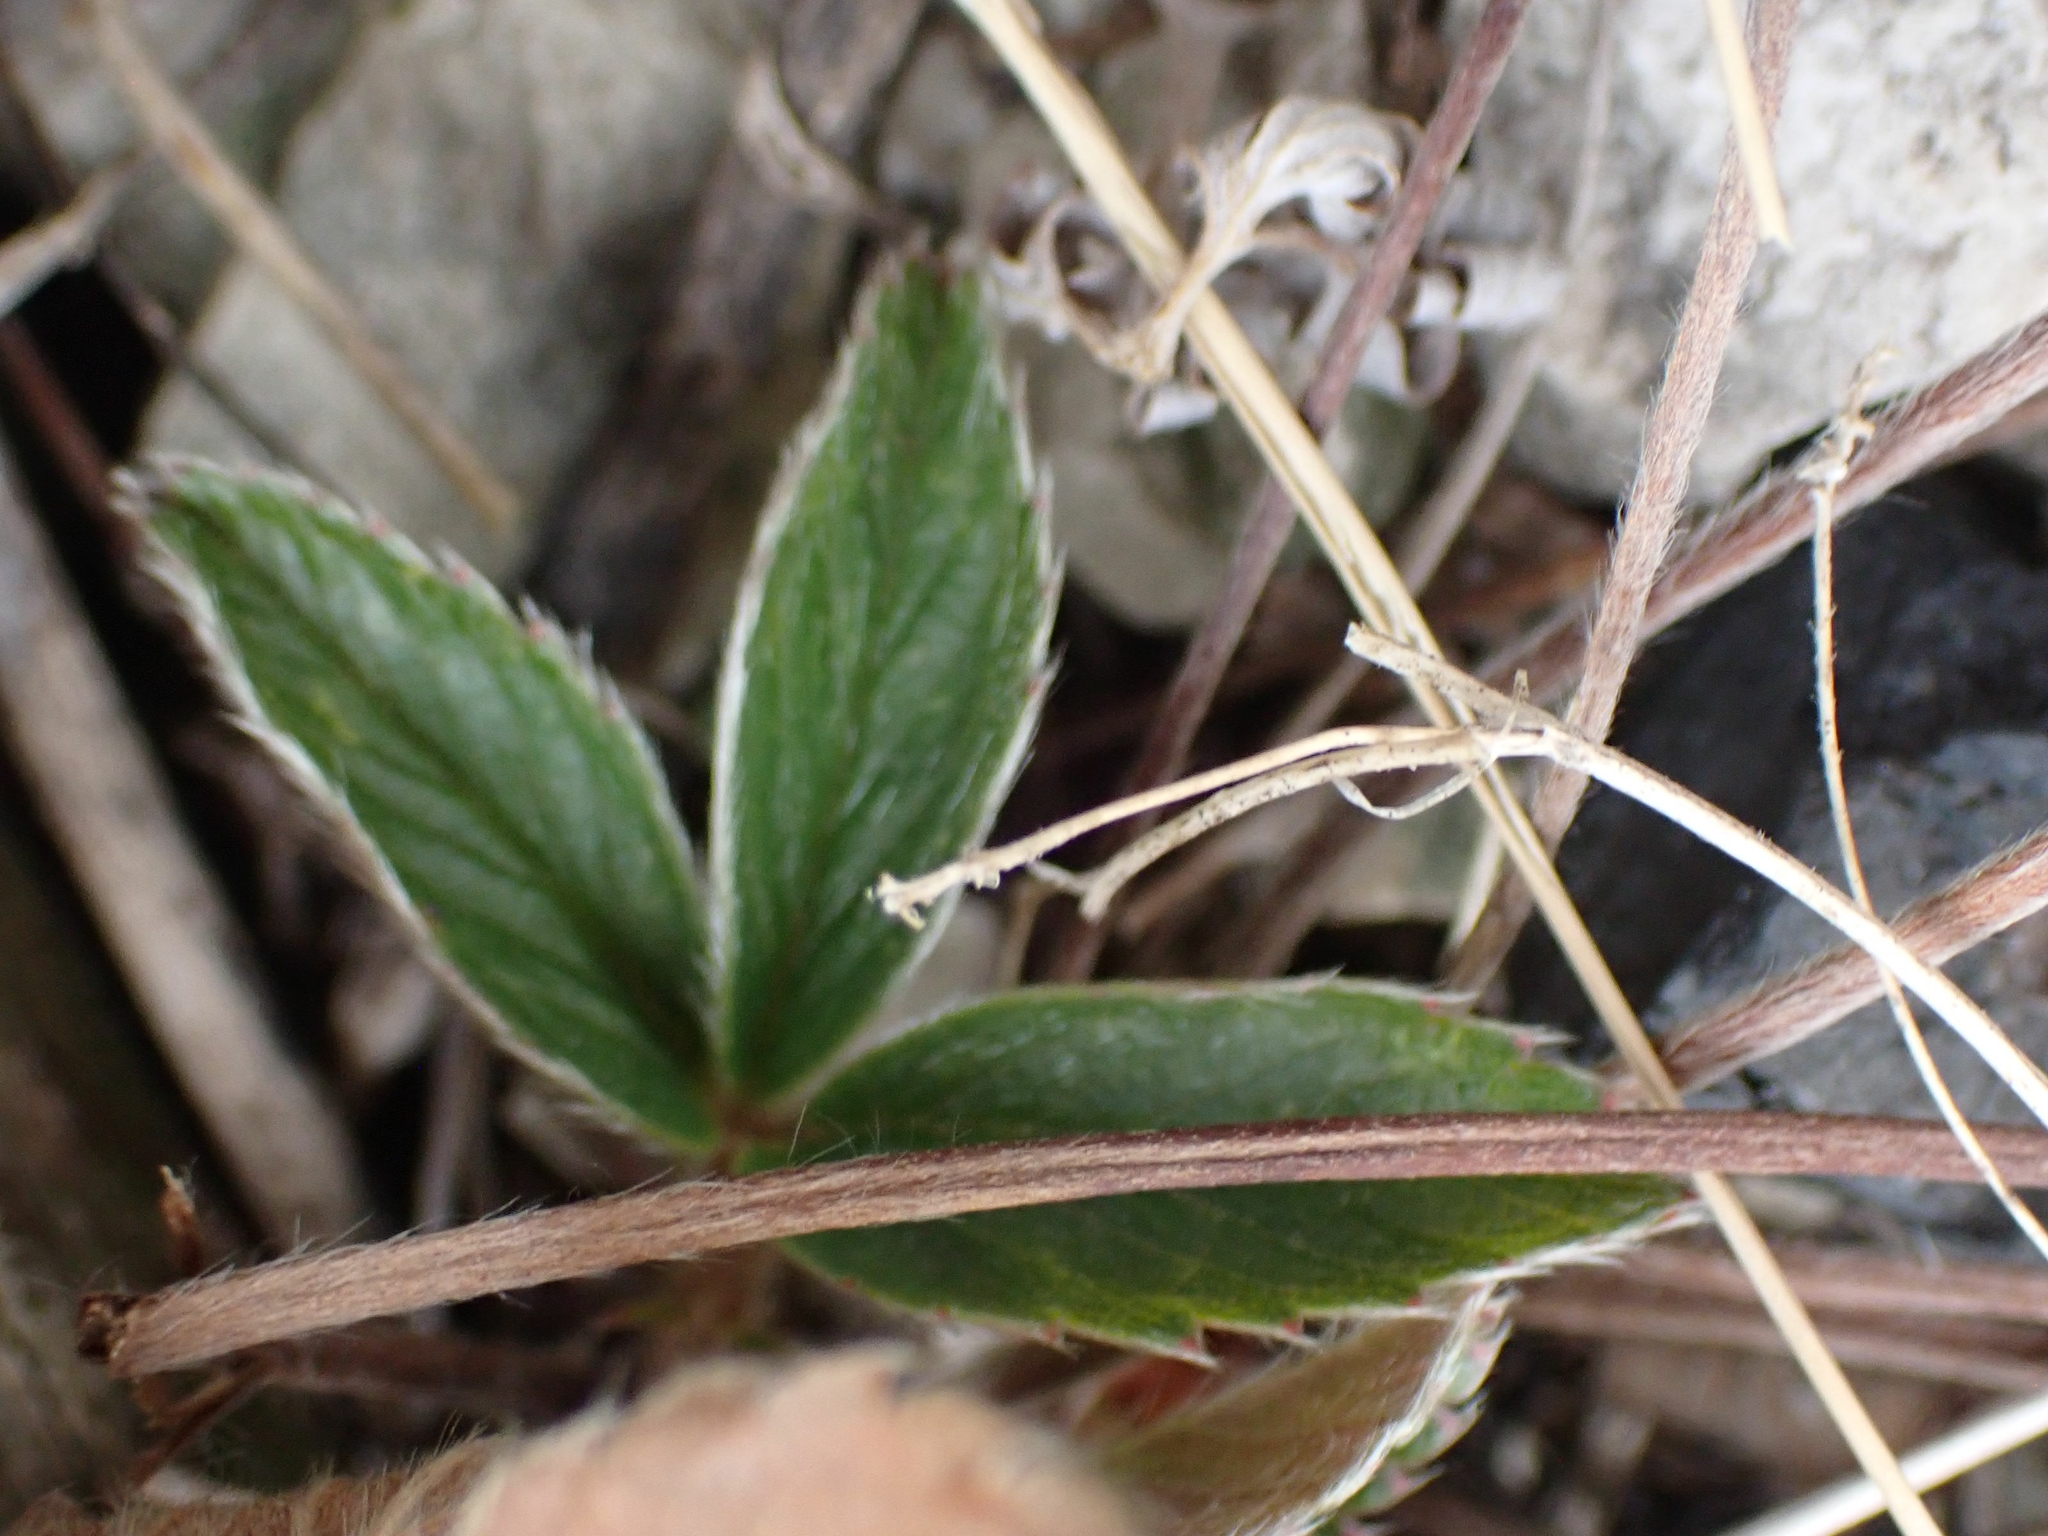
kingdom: Plantae
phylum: Tracheophyta
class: Magnoliopsida
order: Rosales
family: Rosaceae
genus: Fragaria
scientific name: Fragaria virginiana
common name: Thickleaved wild strawberry
